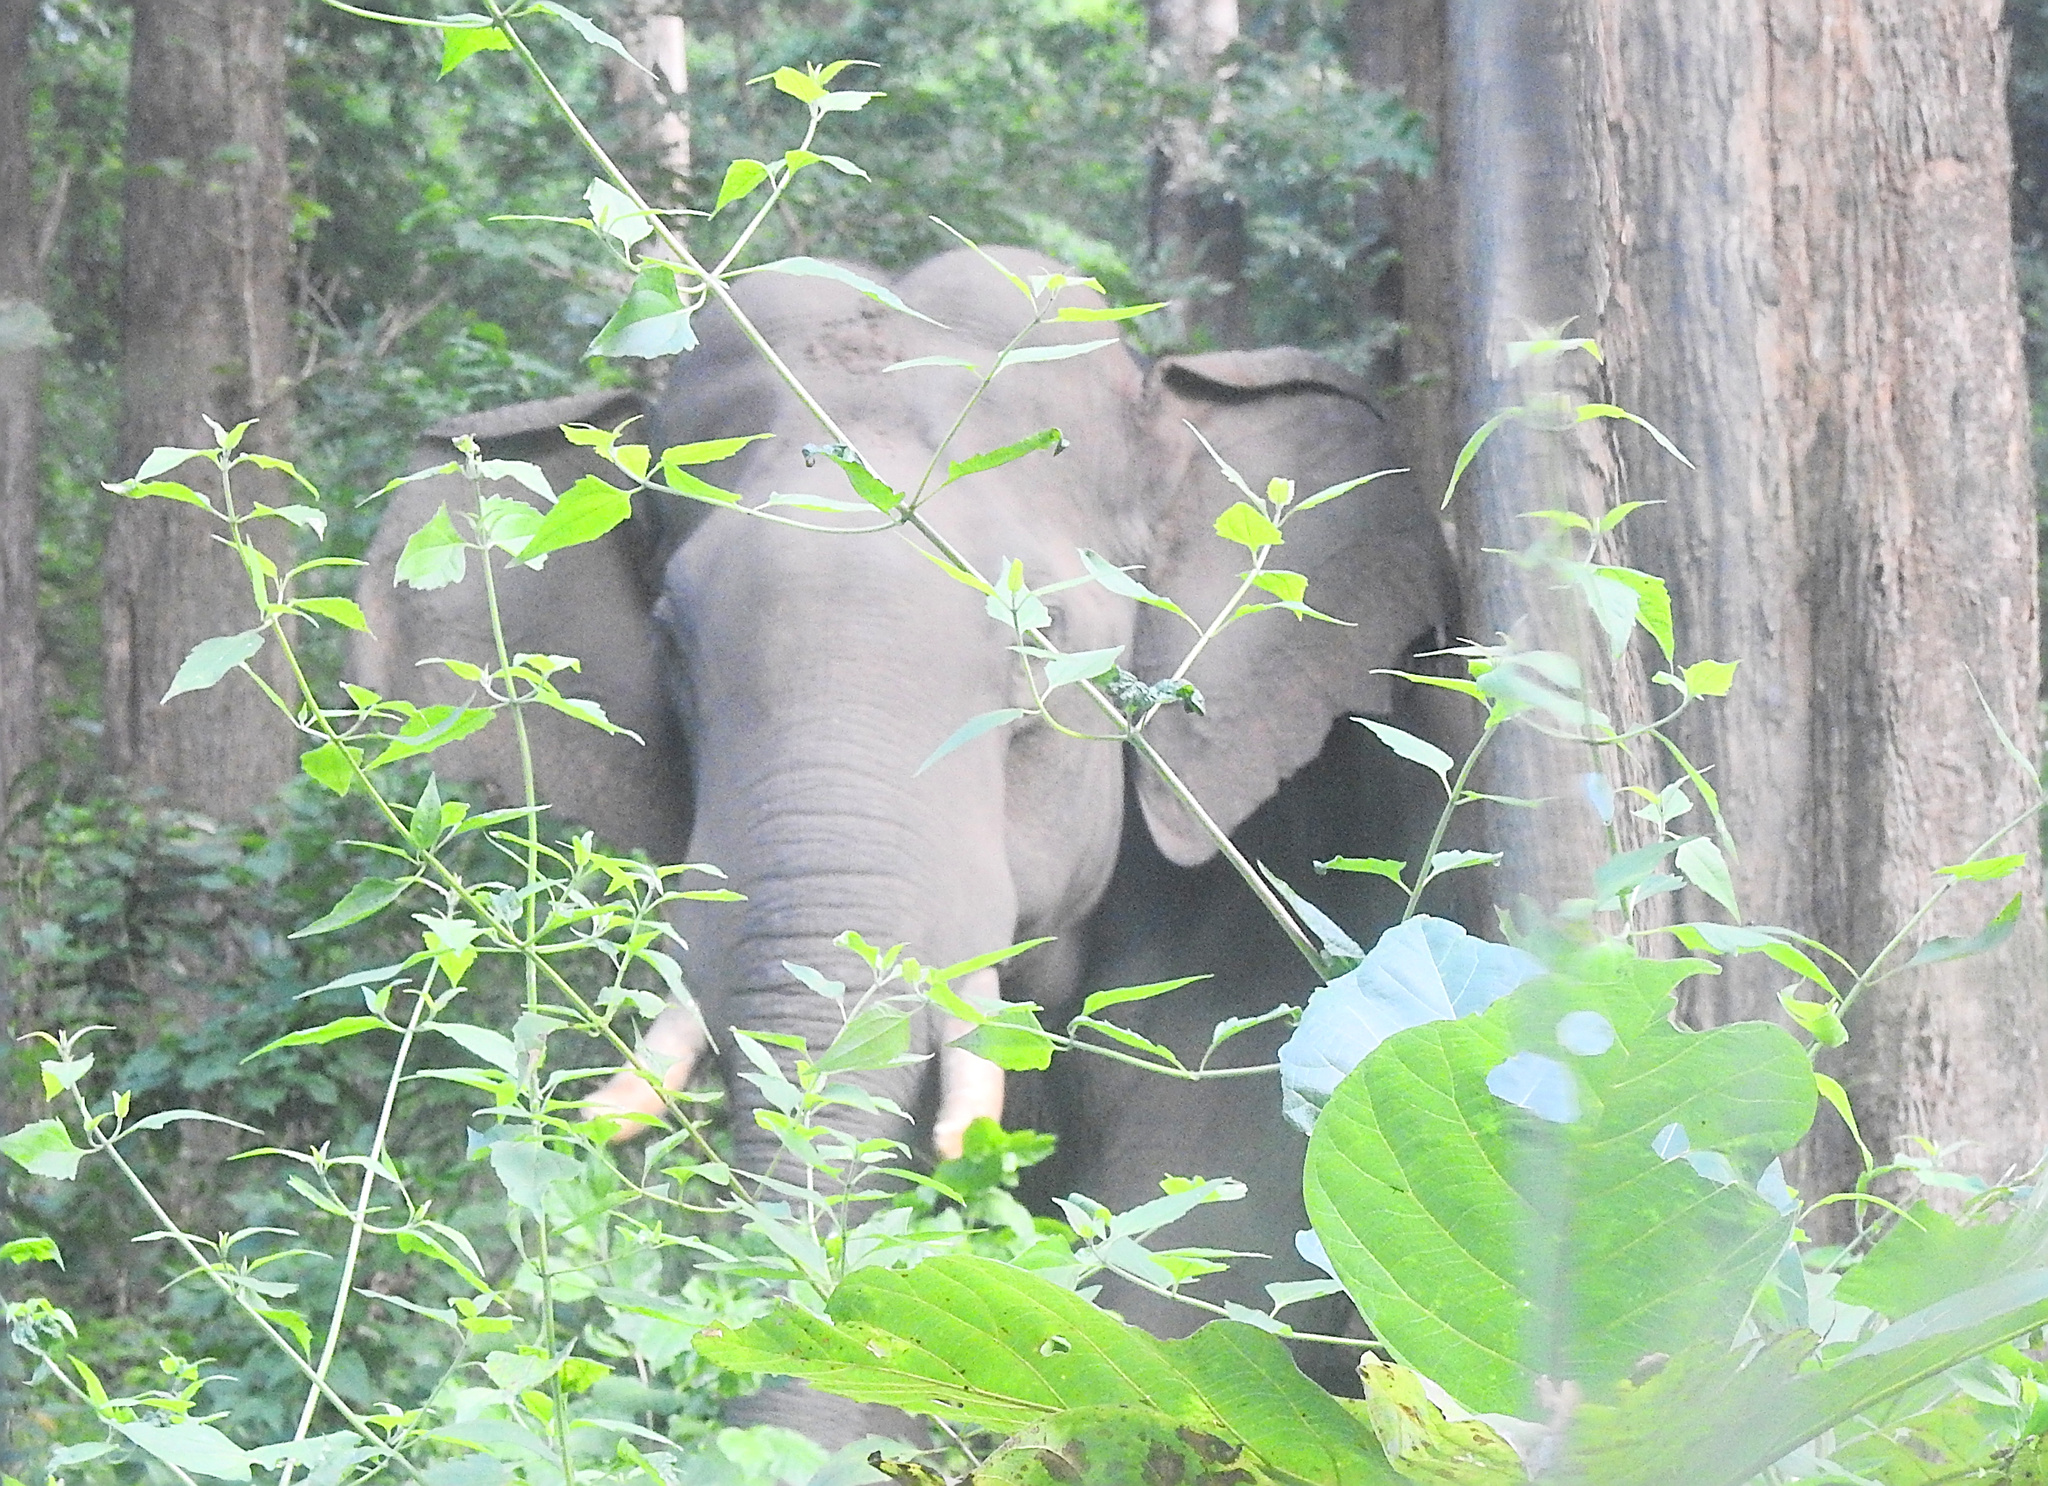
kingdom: Animalia
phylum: Chordata
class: Mammalia
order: Proboscidea
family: Elephantidae
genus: Elephas
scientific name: Elephas maximus
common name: Asian elephant
